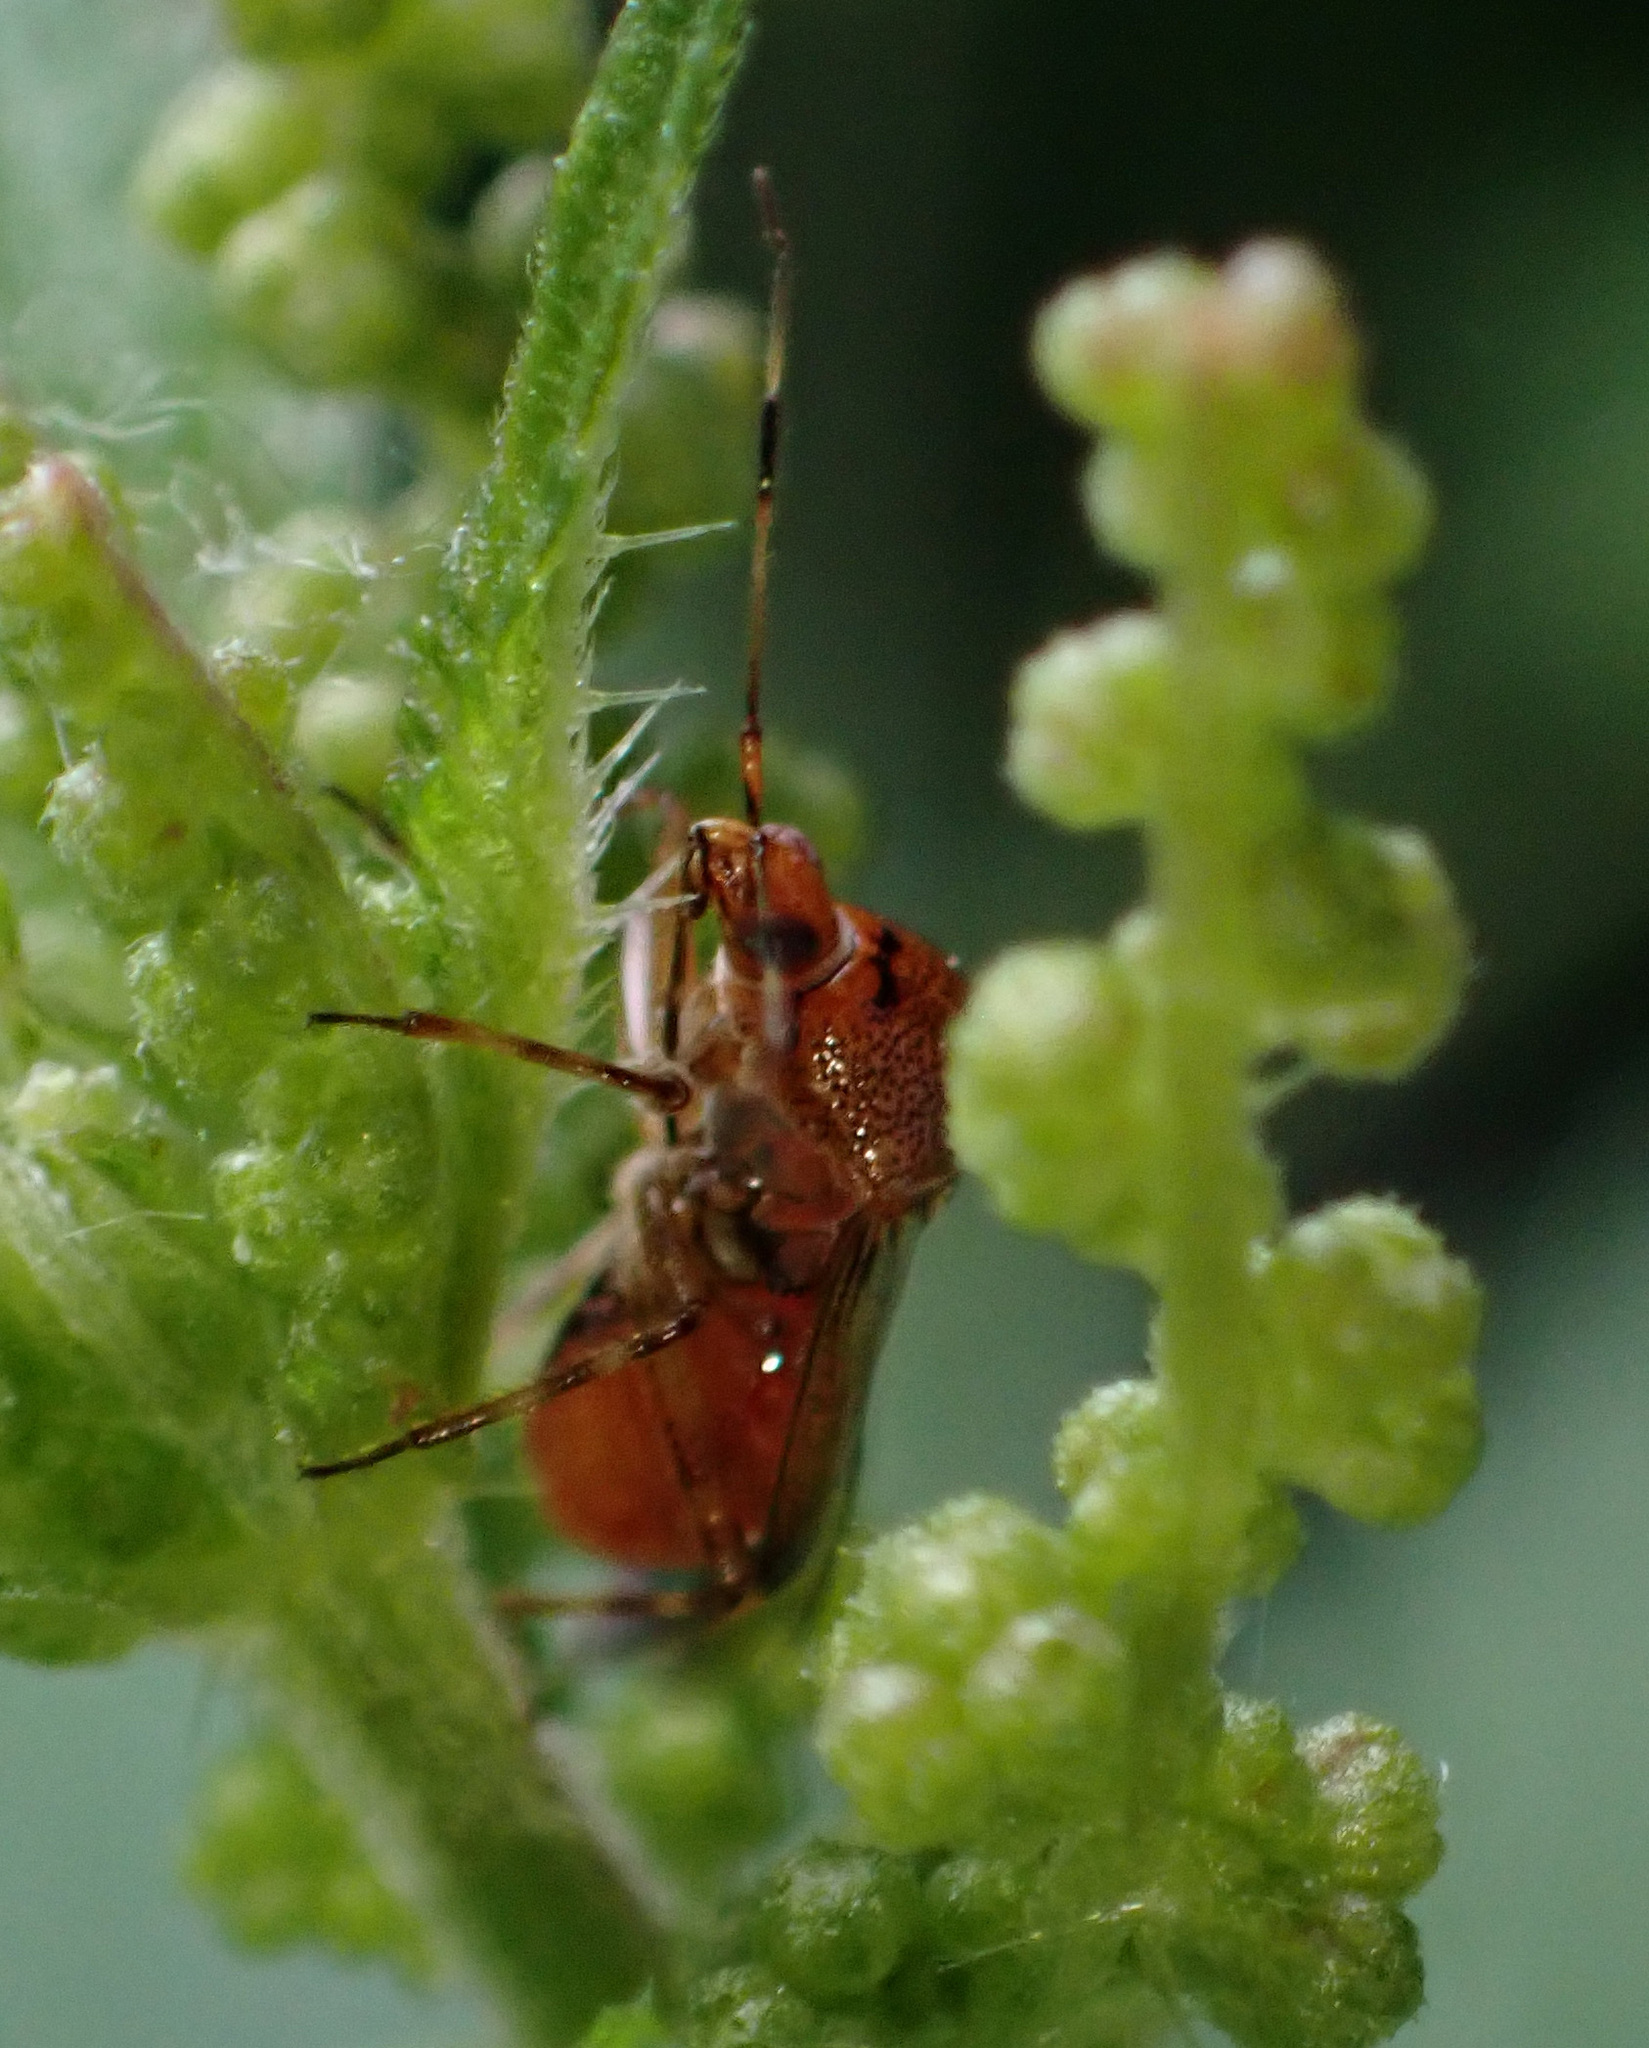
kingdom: Animalia
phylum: Arthropoda
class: Insecta
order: Hemiptera
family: Miridae
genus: Deraeocoris
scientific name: Deraeocoris flavilinea
